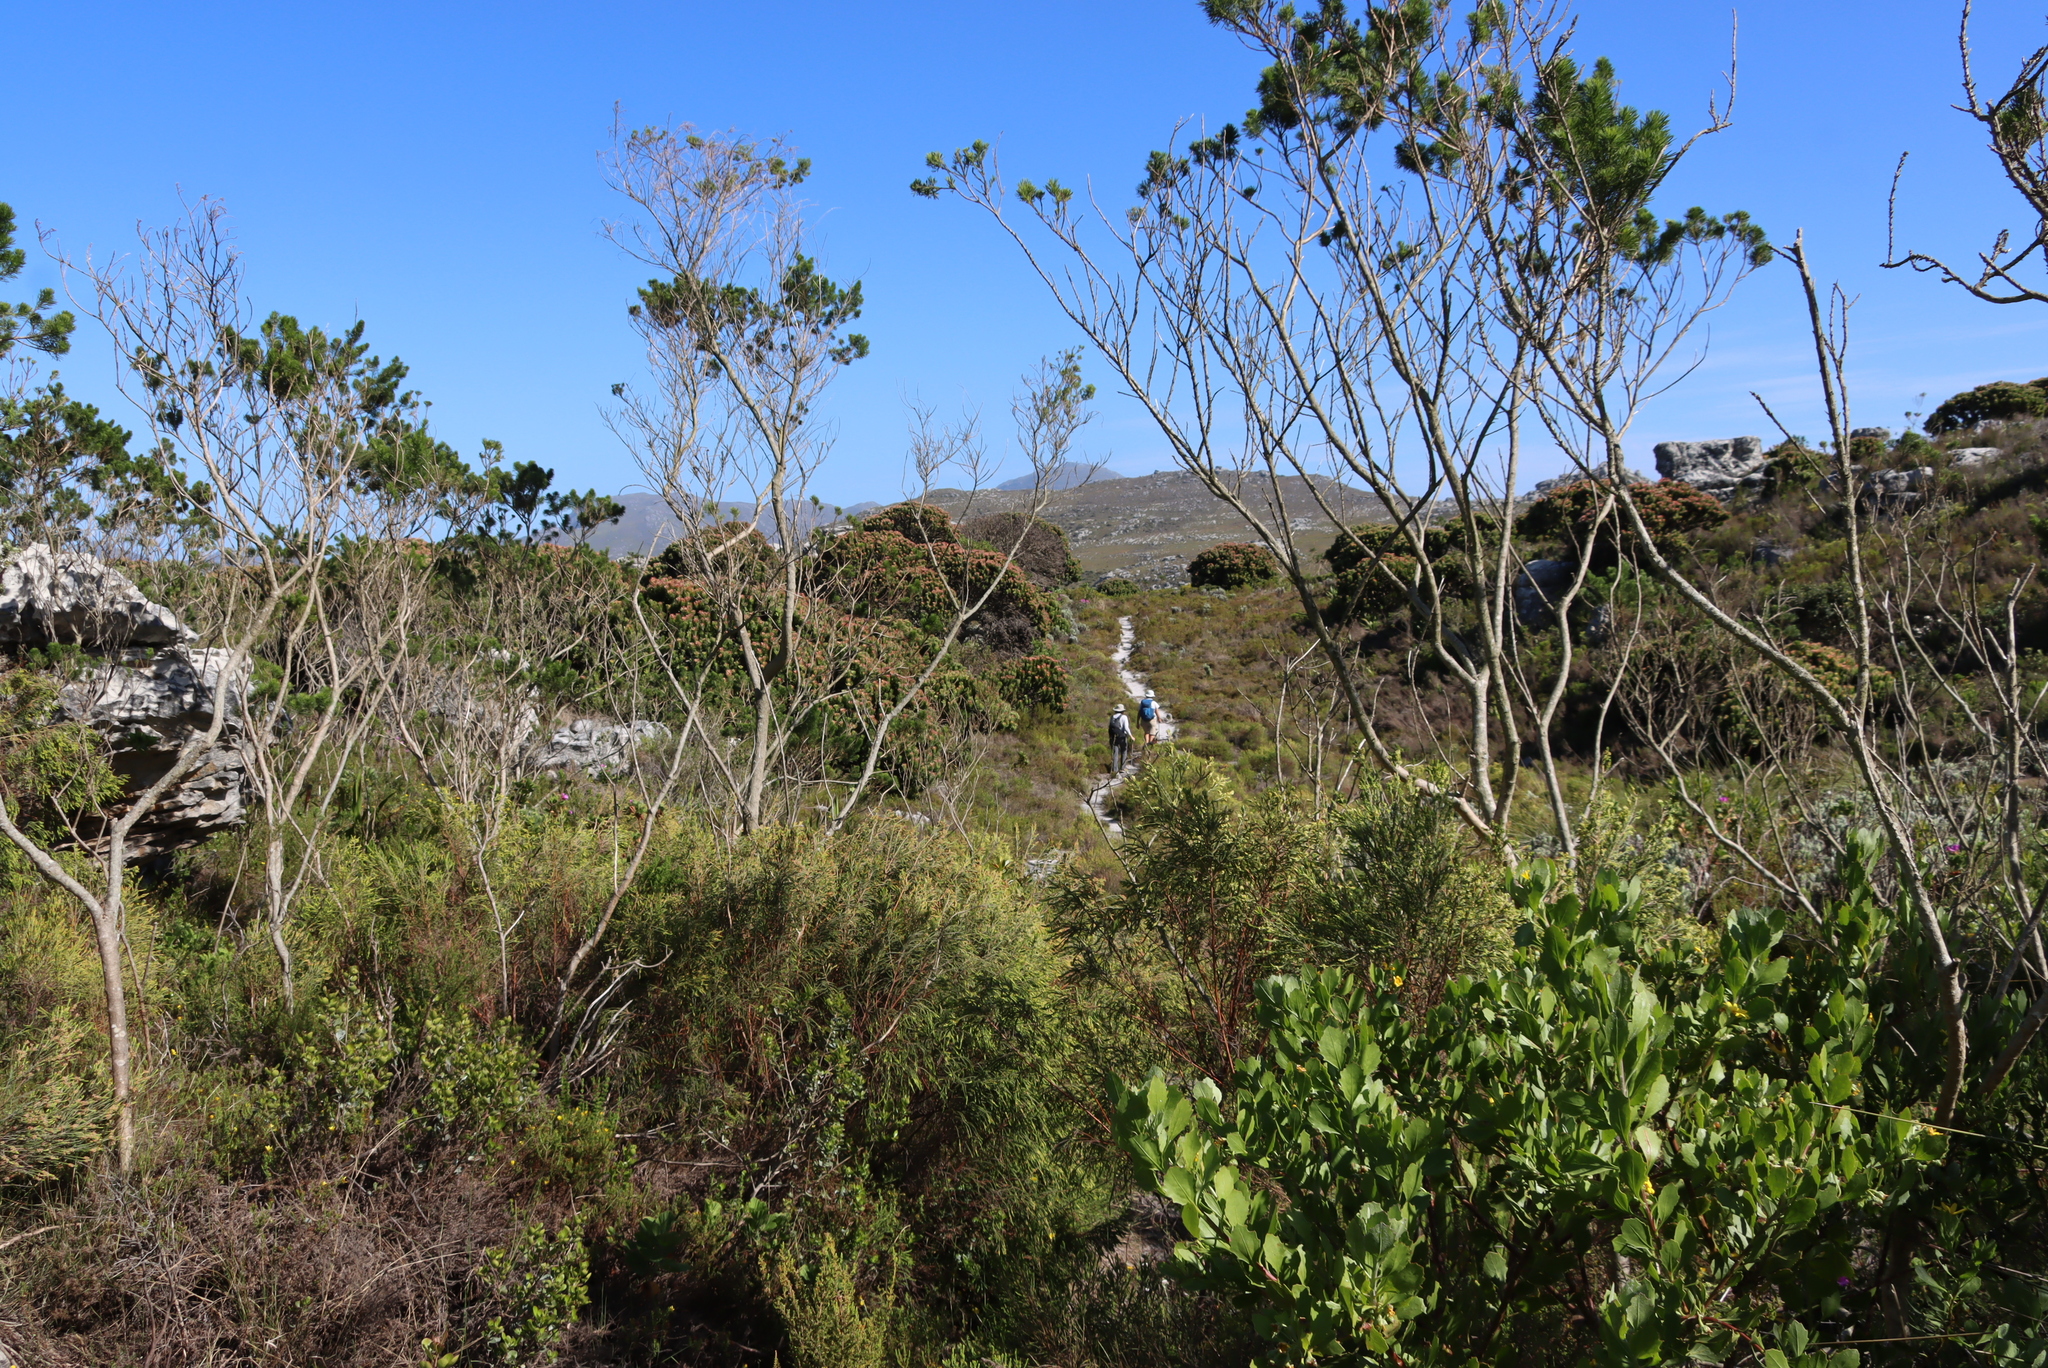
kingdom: Plantae
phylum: Tracheophyta
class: Magnoliopsida
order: Fabales
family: Fabaceae
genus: Psoralea
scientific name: Psoralea pinnata
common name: African scurfpea
